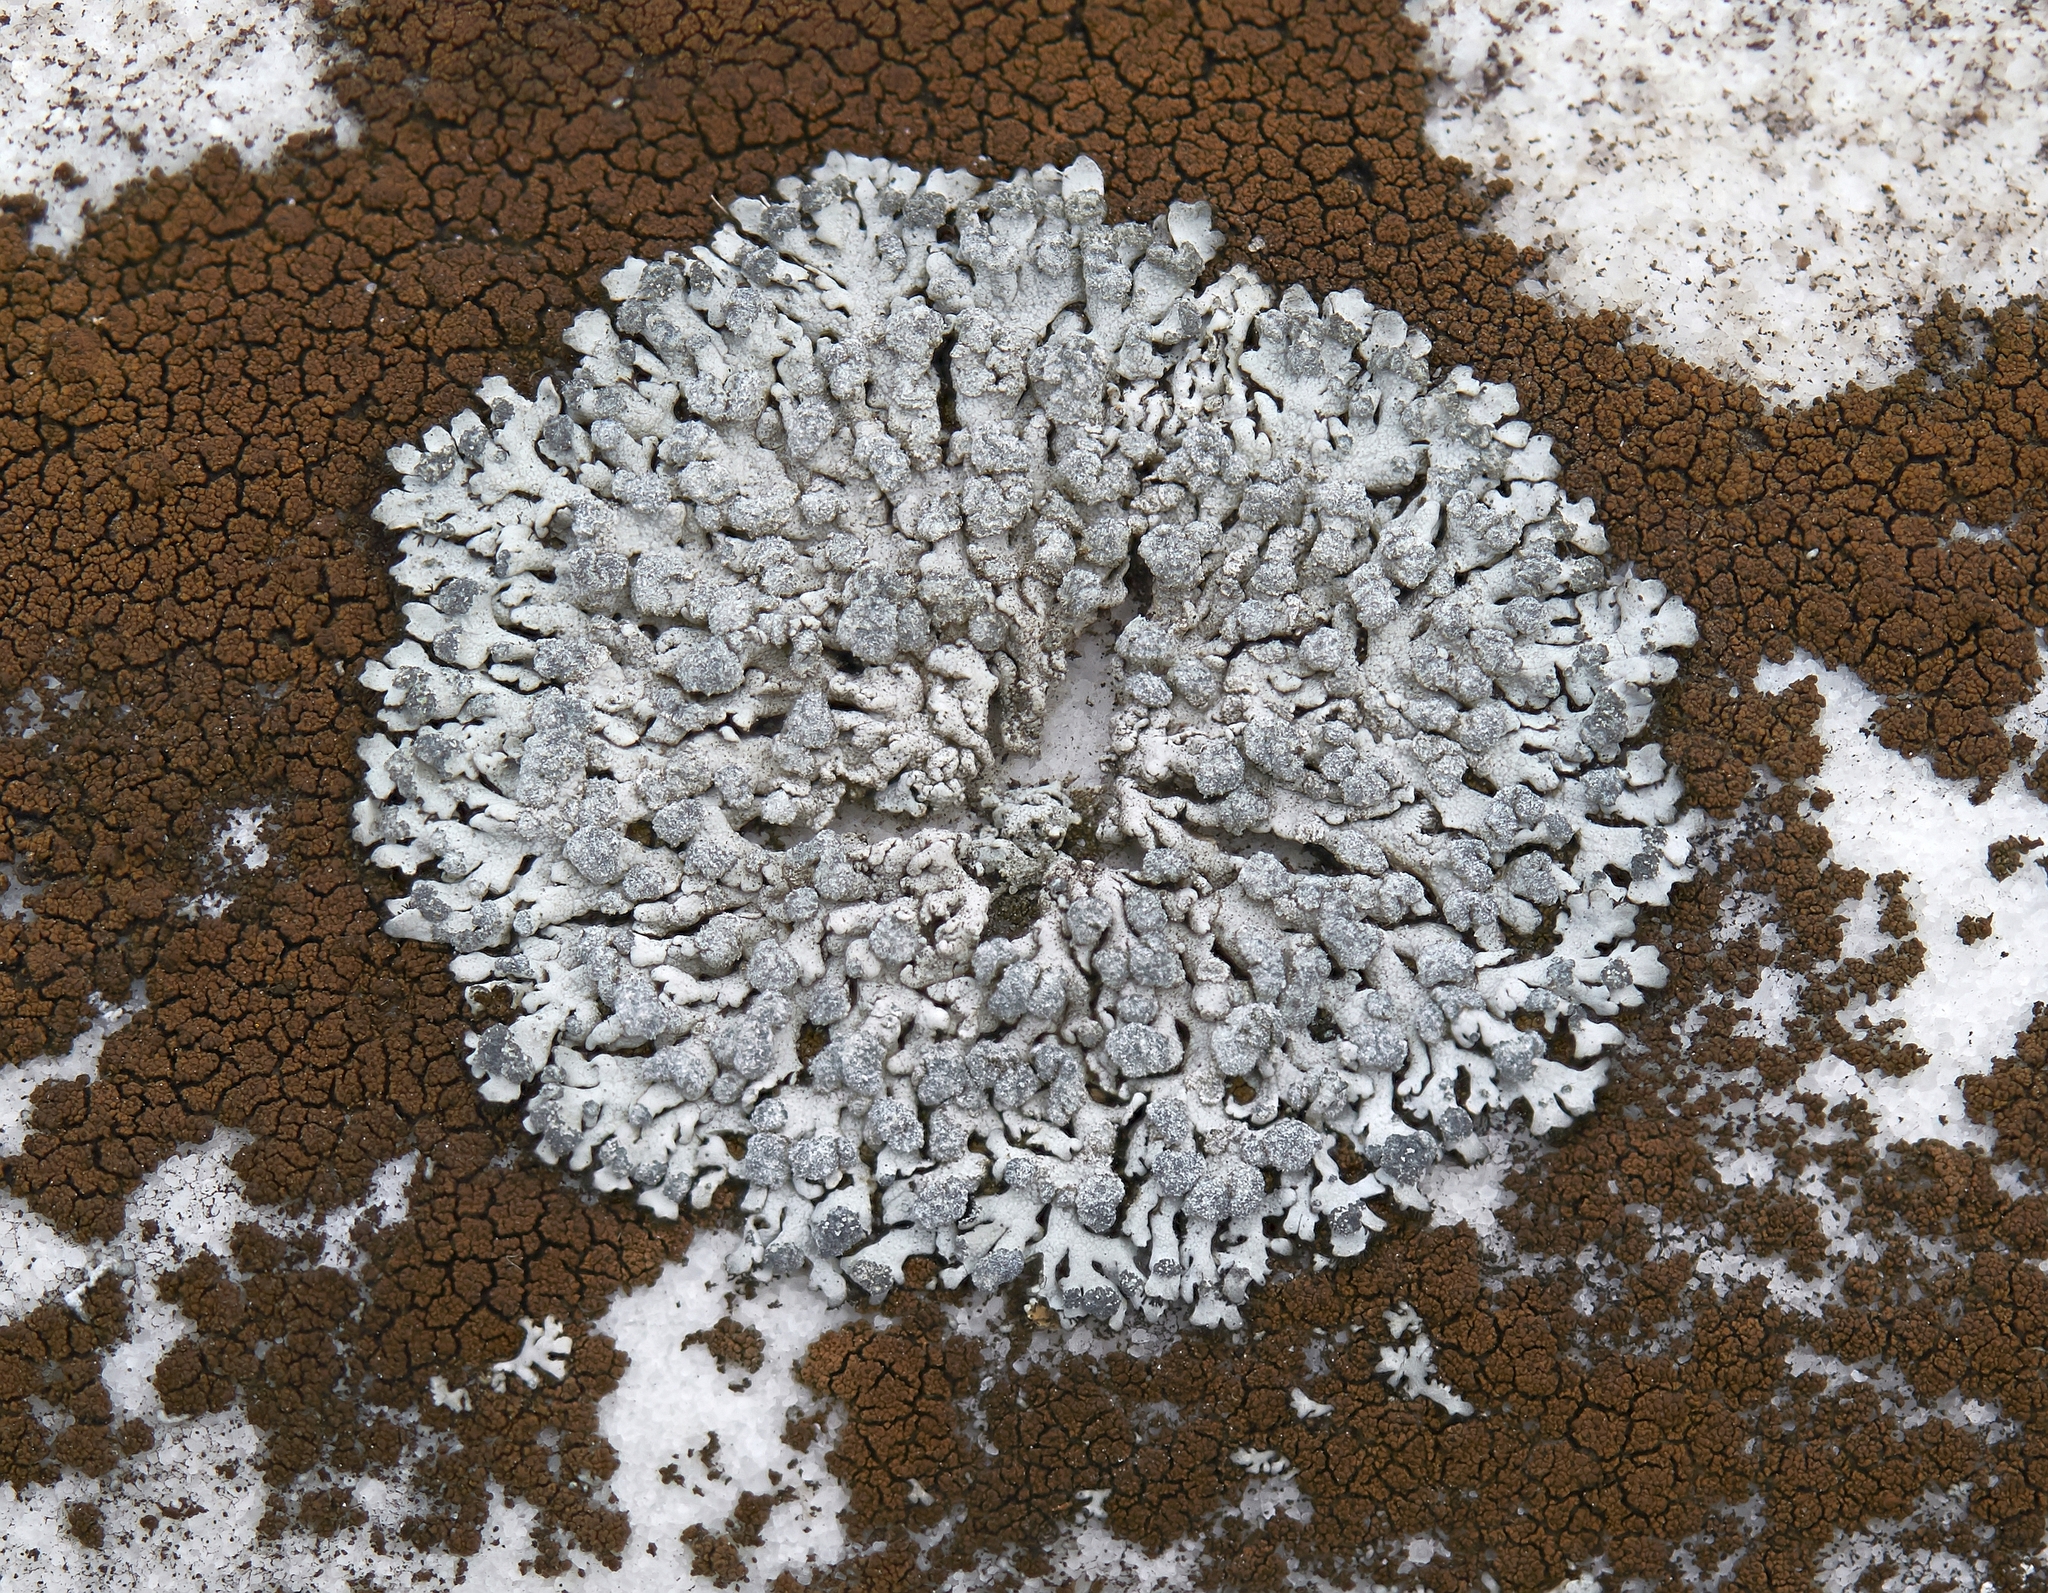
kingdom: Fungi
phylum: Ascomycota
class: Lecanoromycetes
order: Caliciales
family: Physciaceae
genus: Physcia
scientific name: Physcia caesia
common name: Blue-gray rosette lichen
